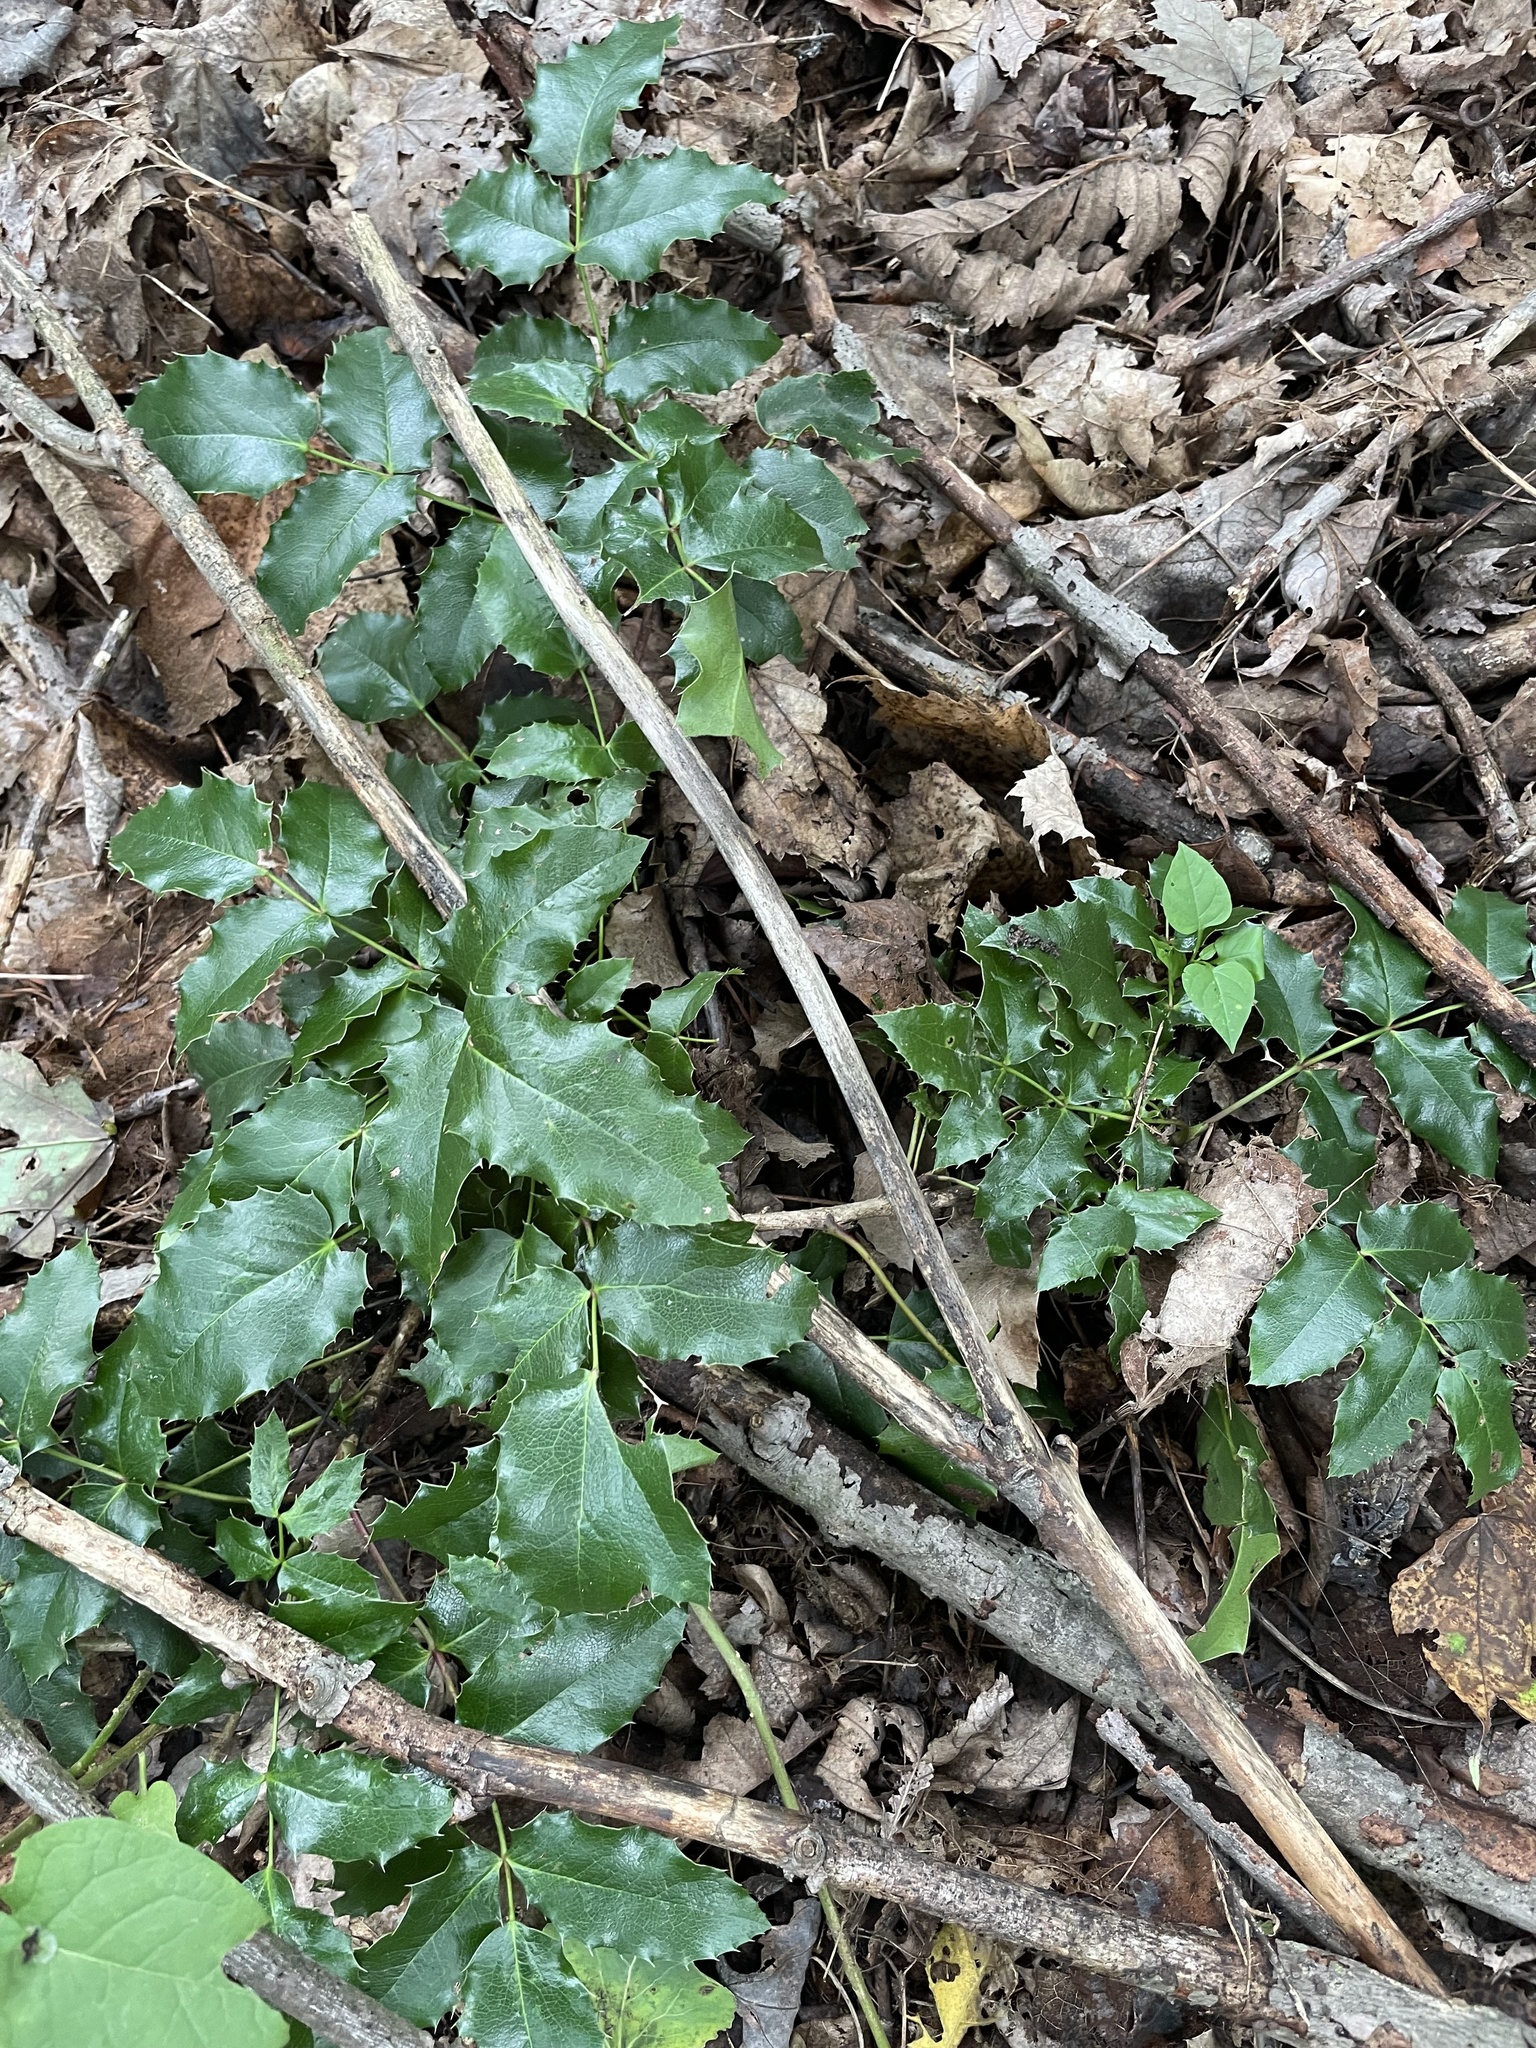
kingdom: Plantae
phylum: Tracheophyta
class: Magnoliopsida
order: Ranunculales
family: Berberidaceae
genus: Mahonia
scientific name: Mahonia aquifolium
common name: Oregon-grape
